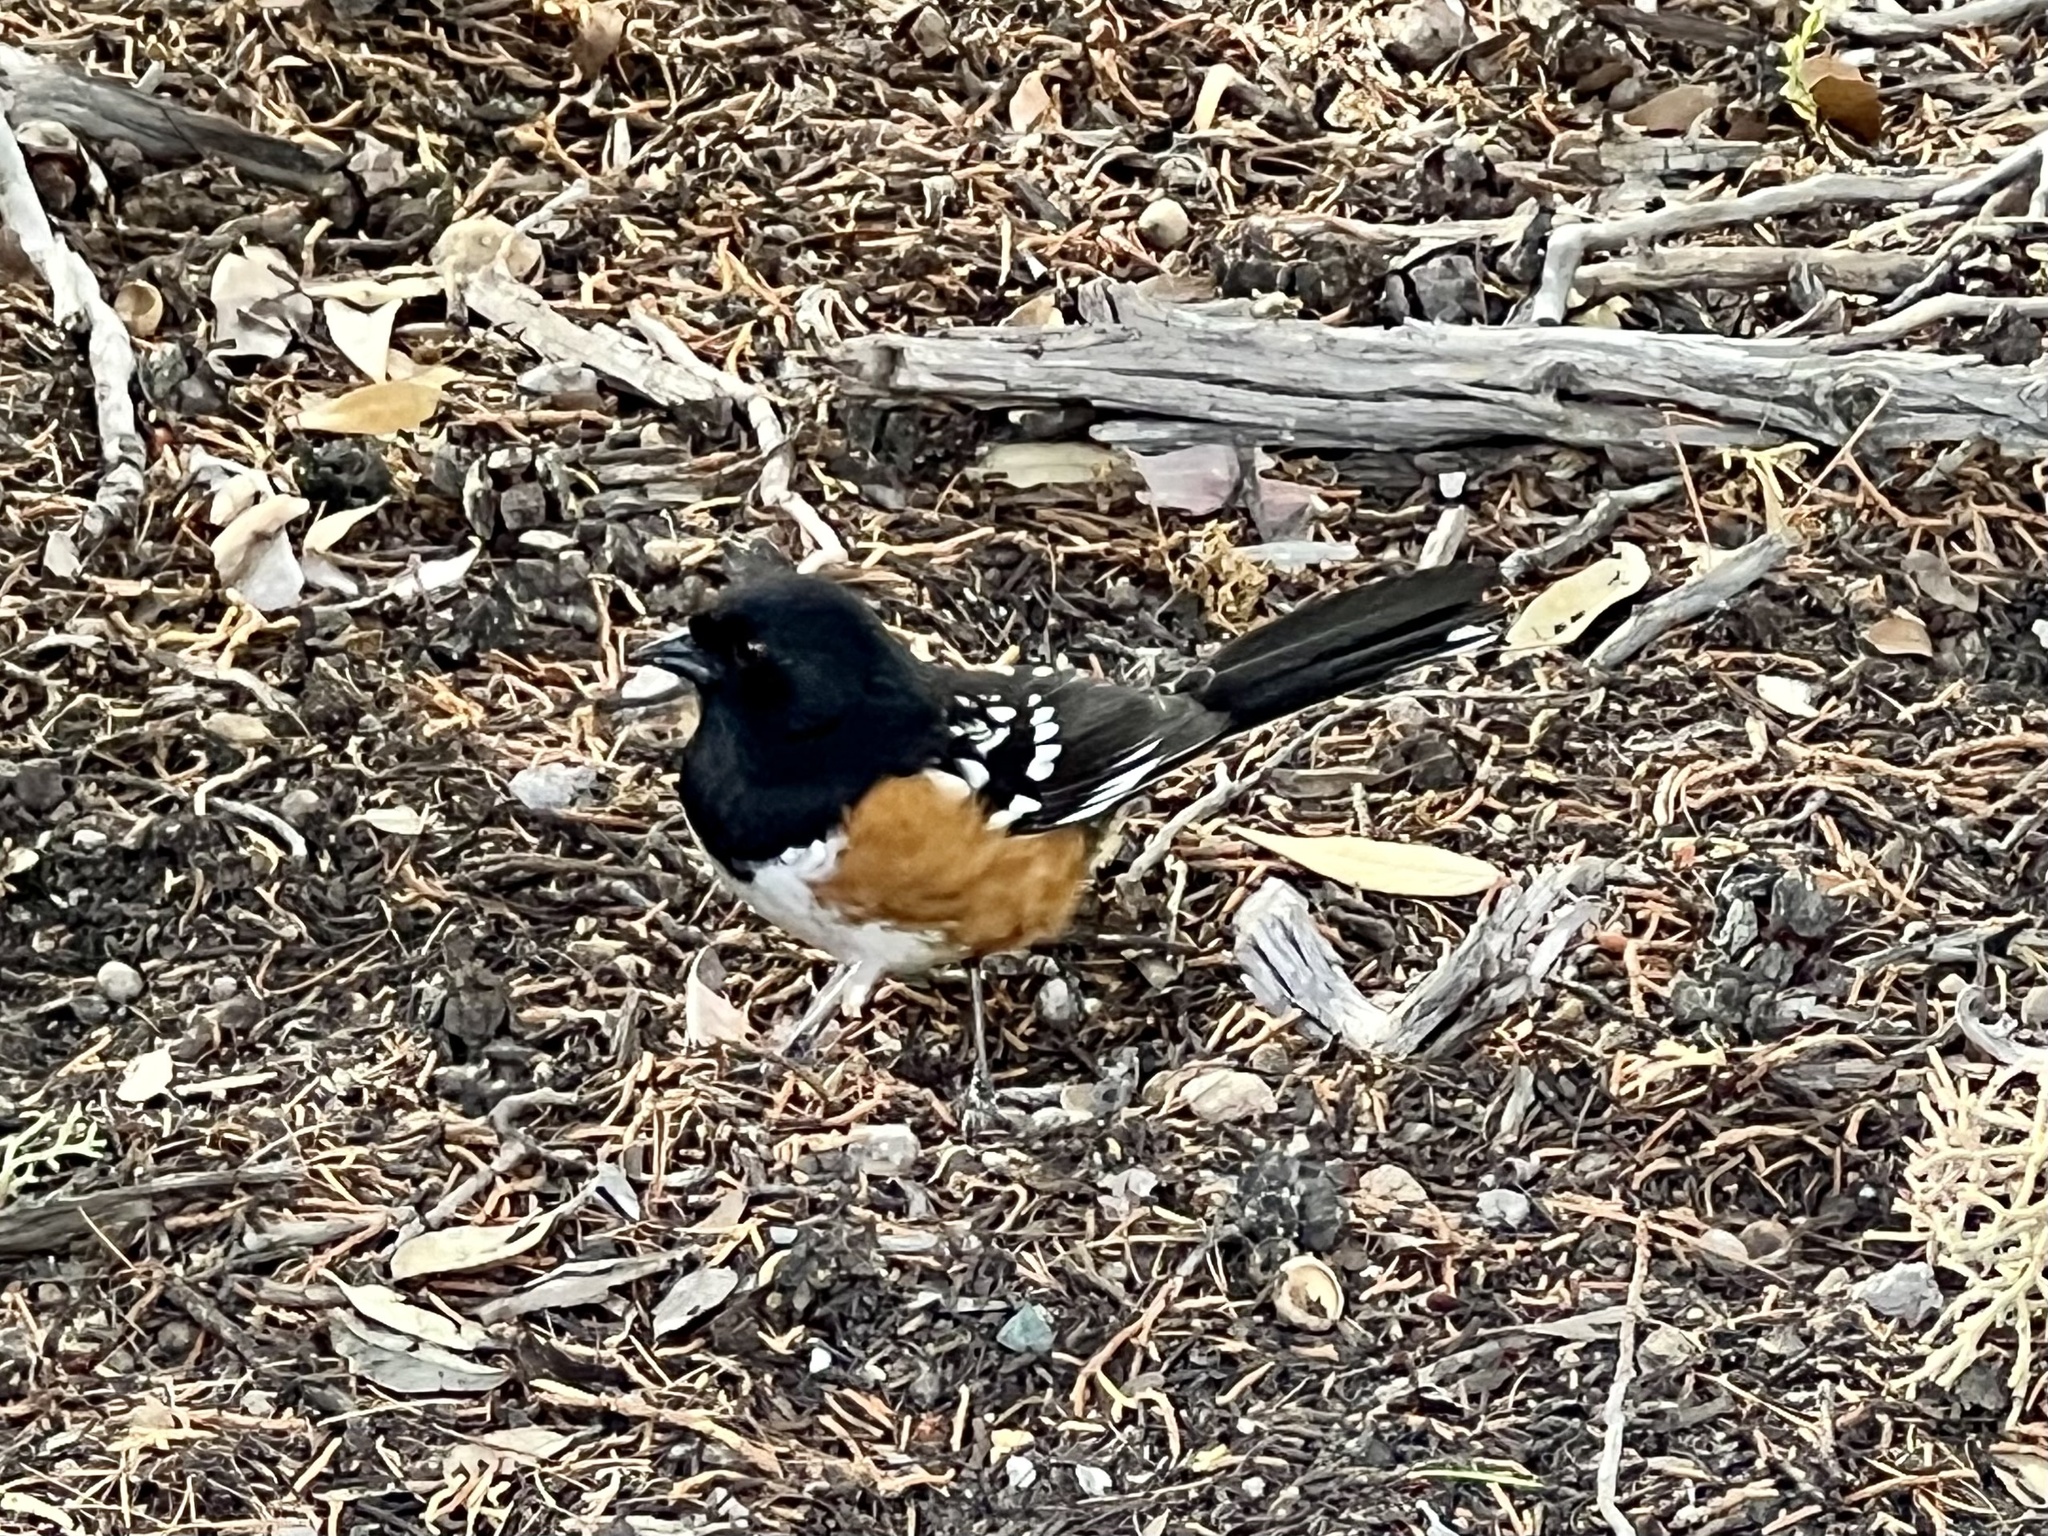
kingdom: Animalia
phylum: Chordata
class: Aves
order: Passeriformes
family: Passerellidae
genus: Pipilo
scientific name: Pipilo maculatus
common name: Spotted towhee
